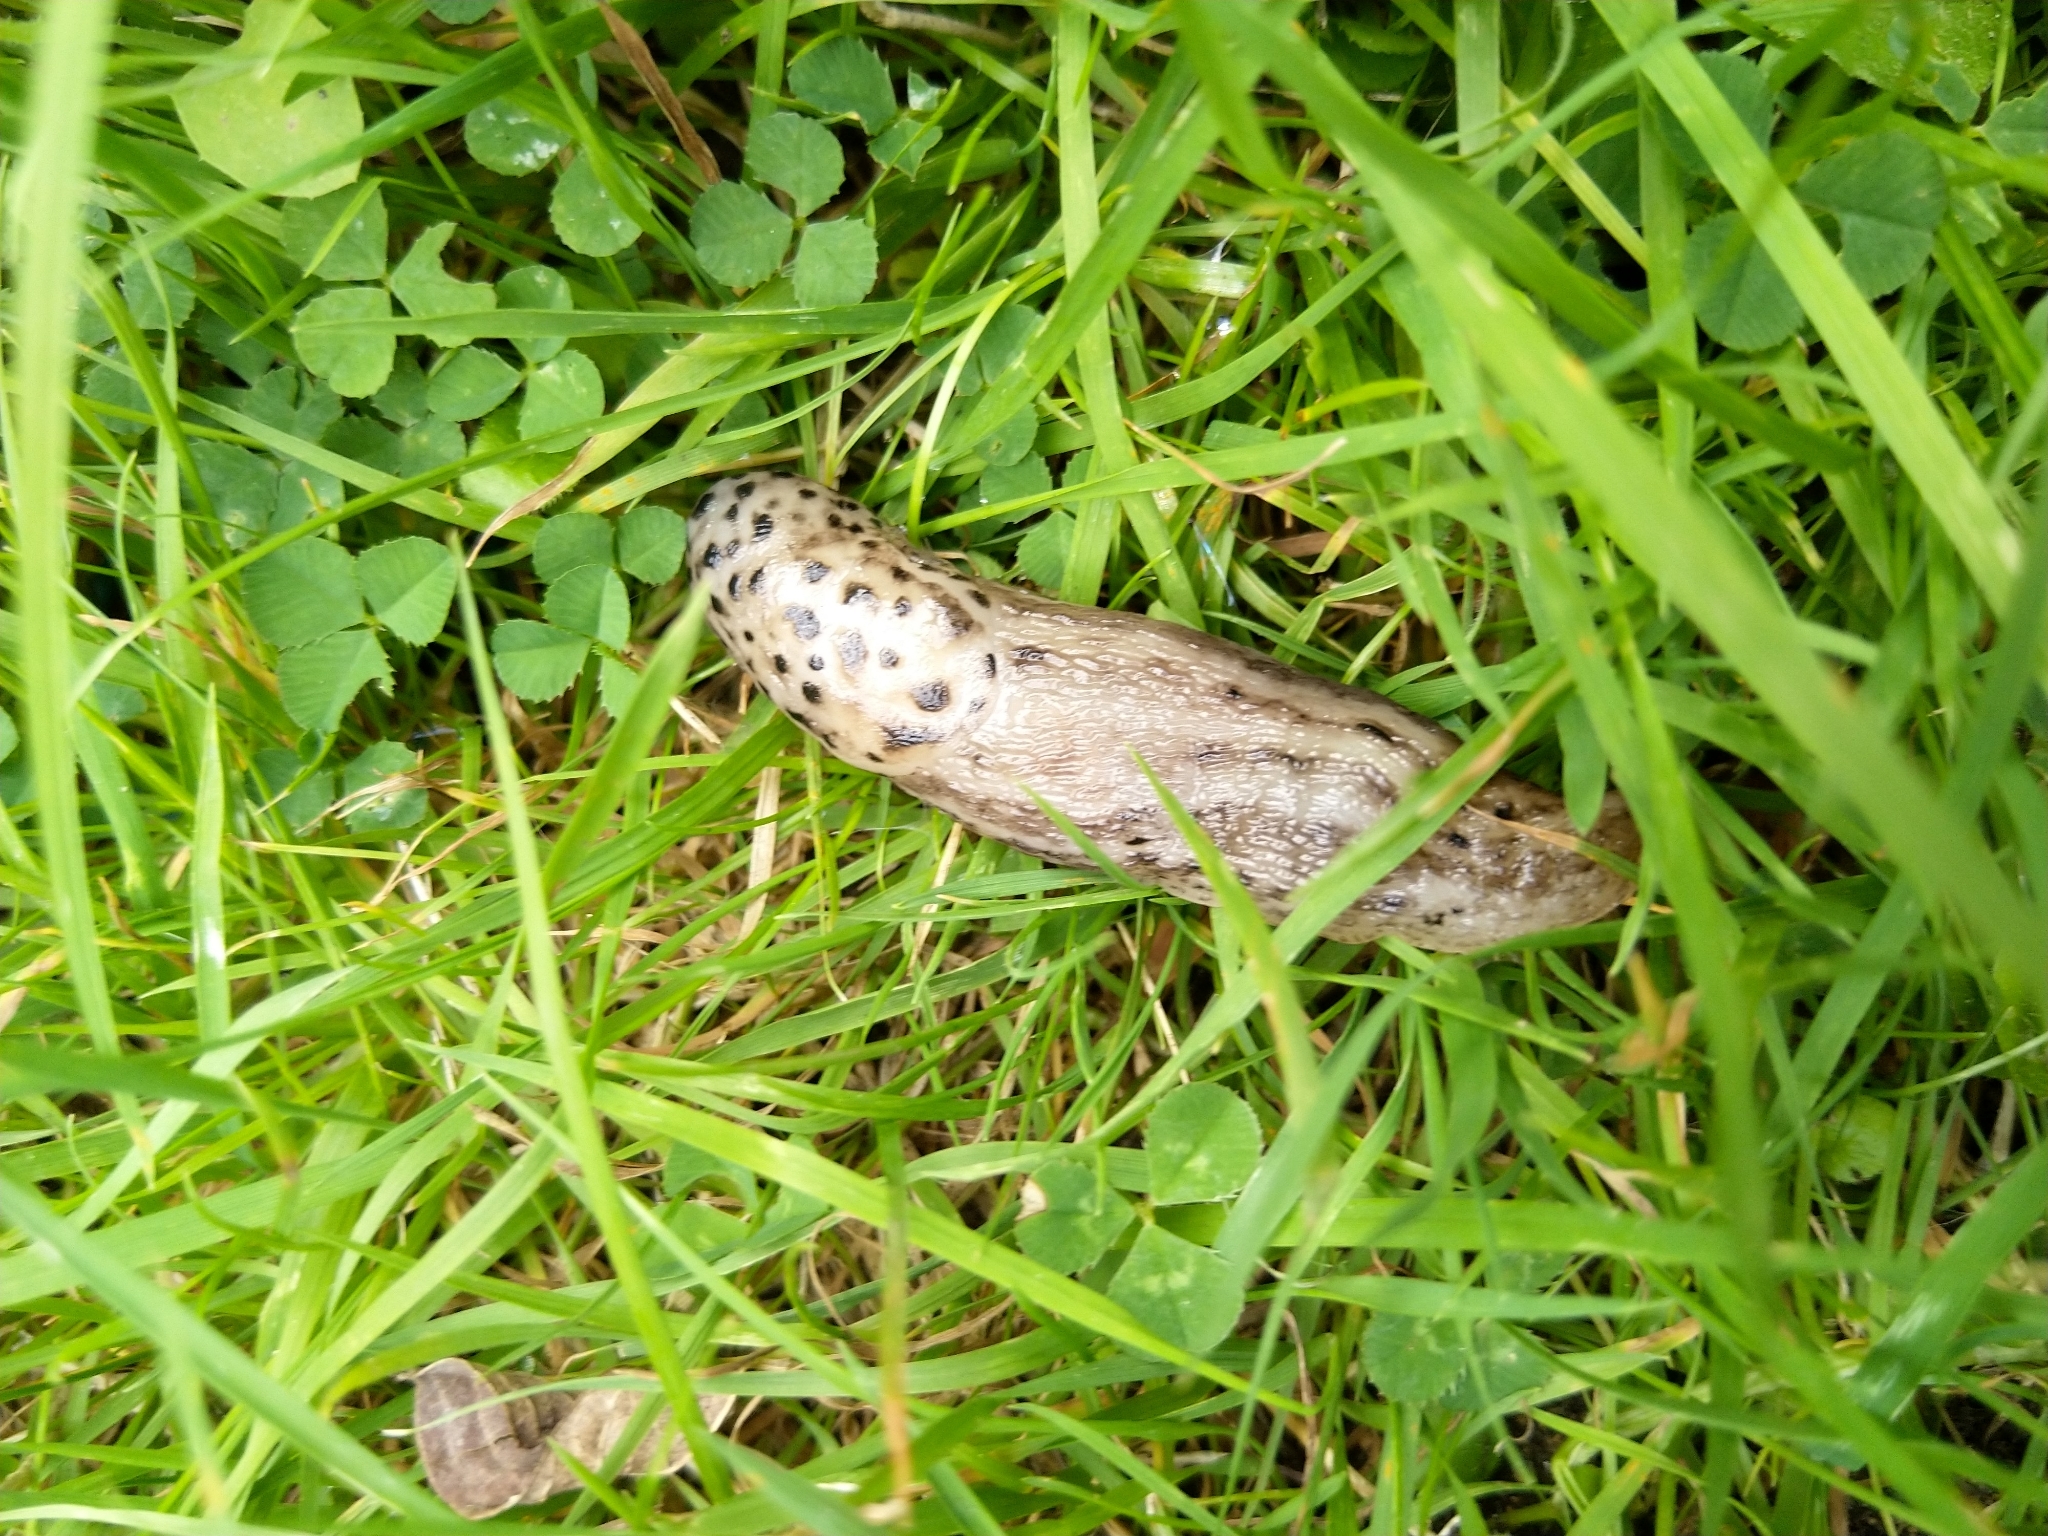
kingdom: Animalia
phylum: Mollusca
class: Gastropoda
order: Stylommatophora
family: Limacidae
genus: Limax
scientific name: Limax maximus
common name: Great grey slug
